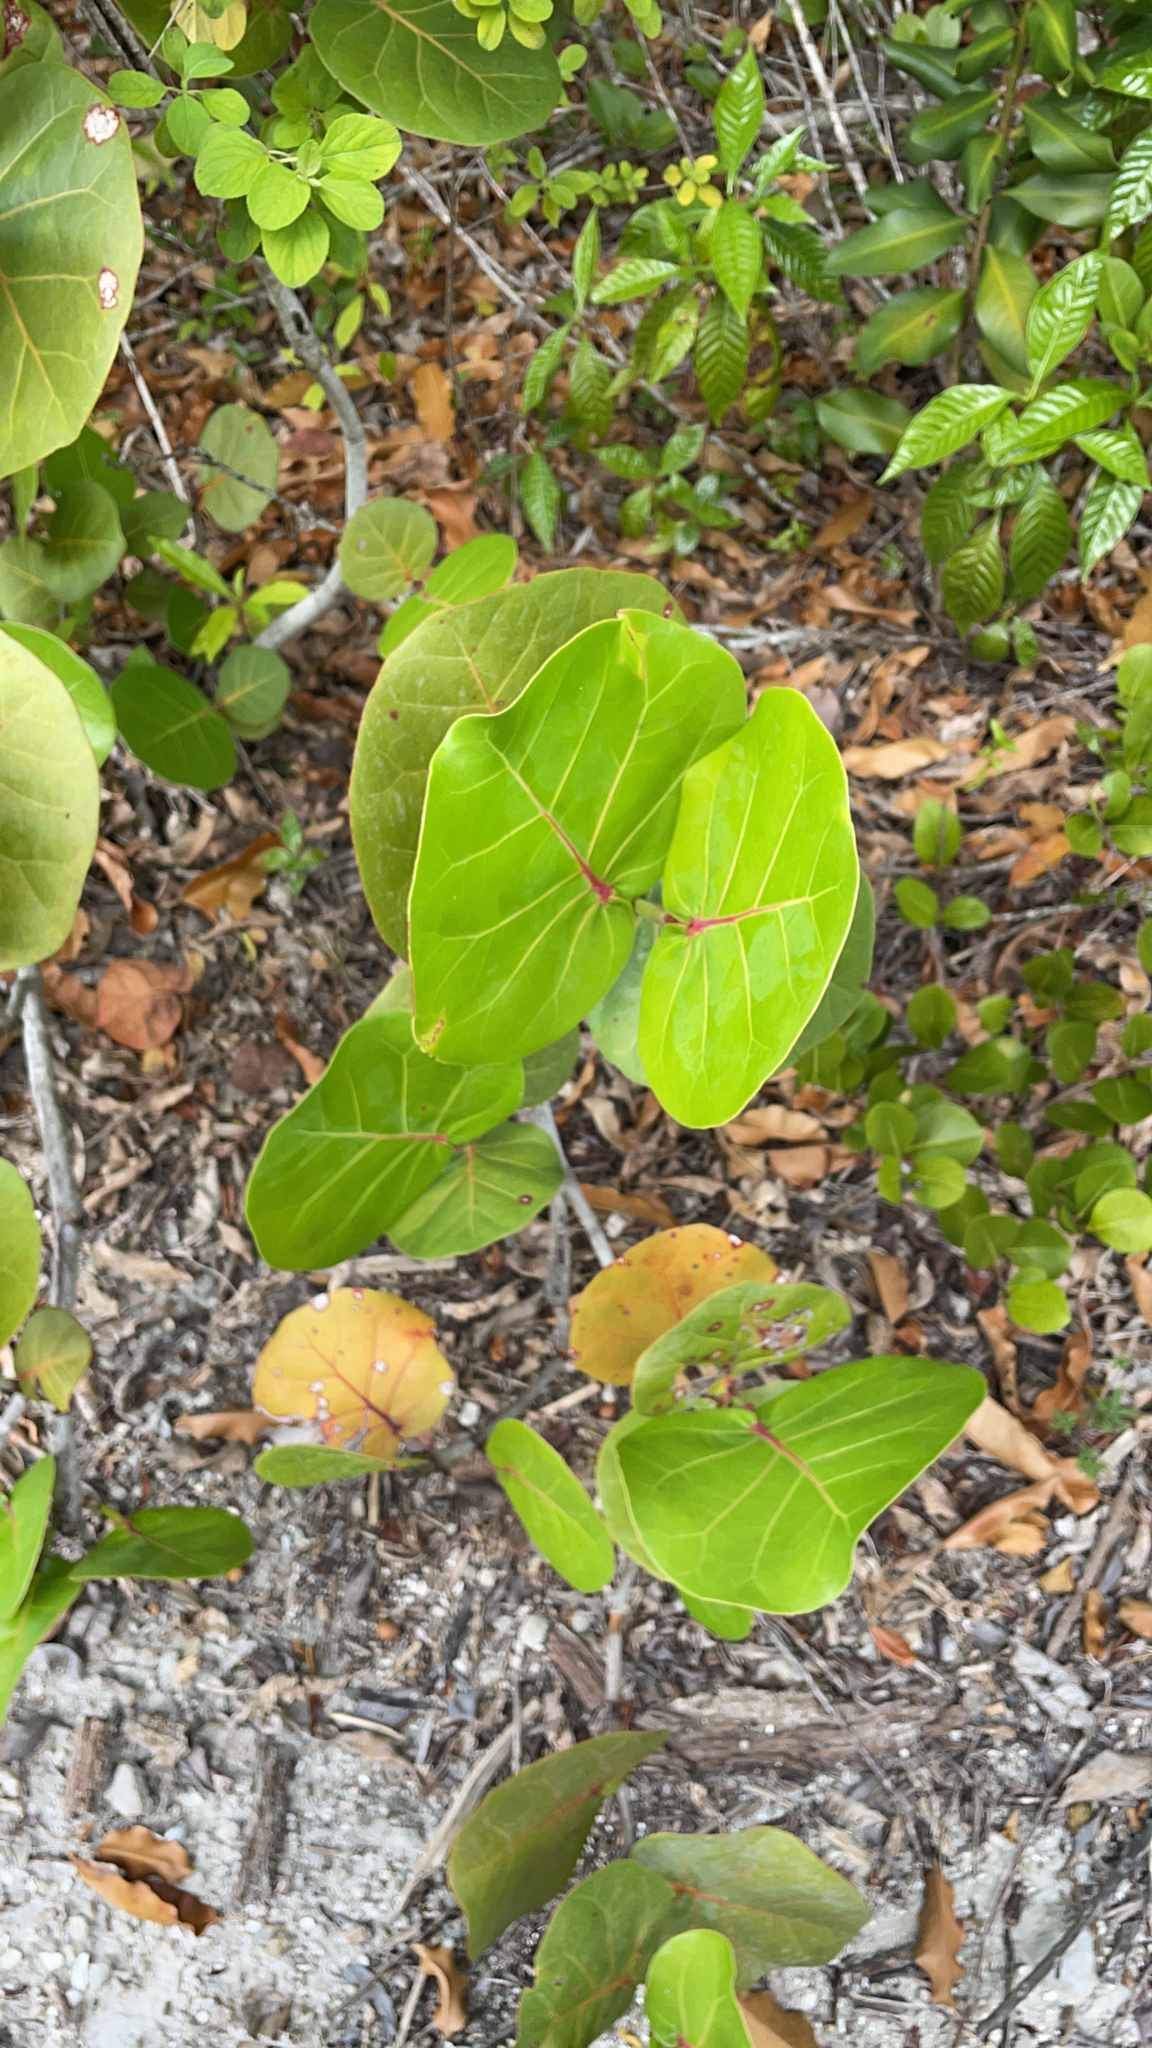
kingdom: Plantae
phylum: Tracheophyta
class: Magnoliopsida
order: Caryophyllales
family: Polygonaceae
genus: Coccoloba
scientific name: Coccoloba uvifera
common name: Seagrape
